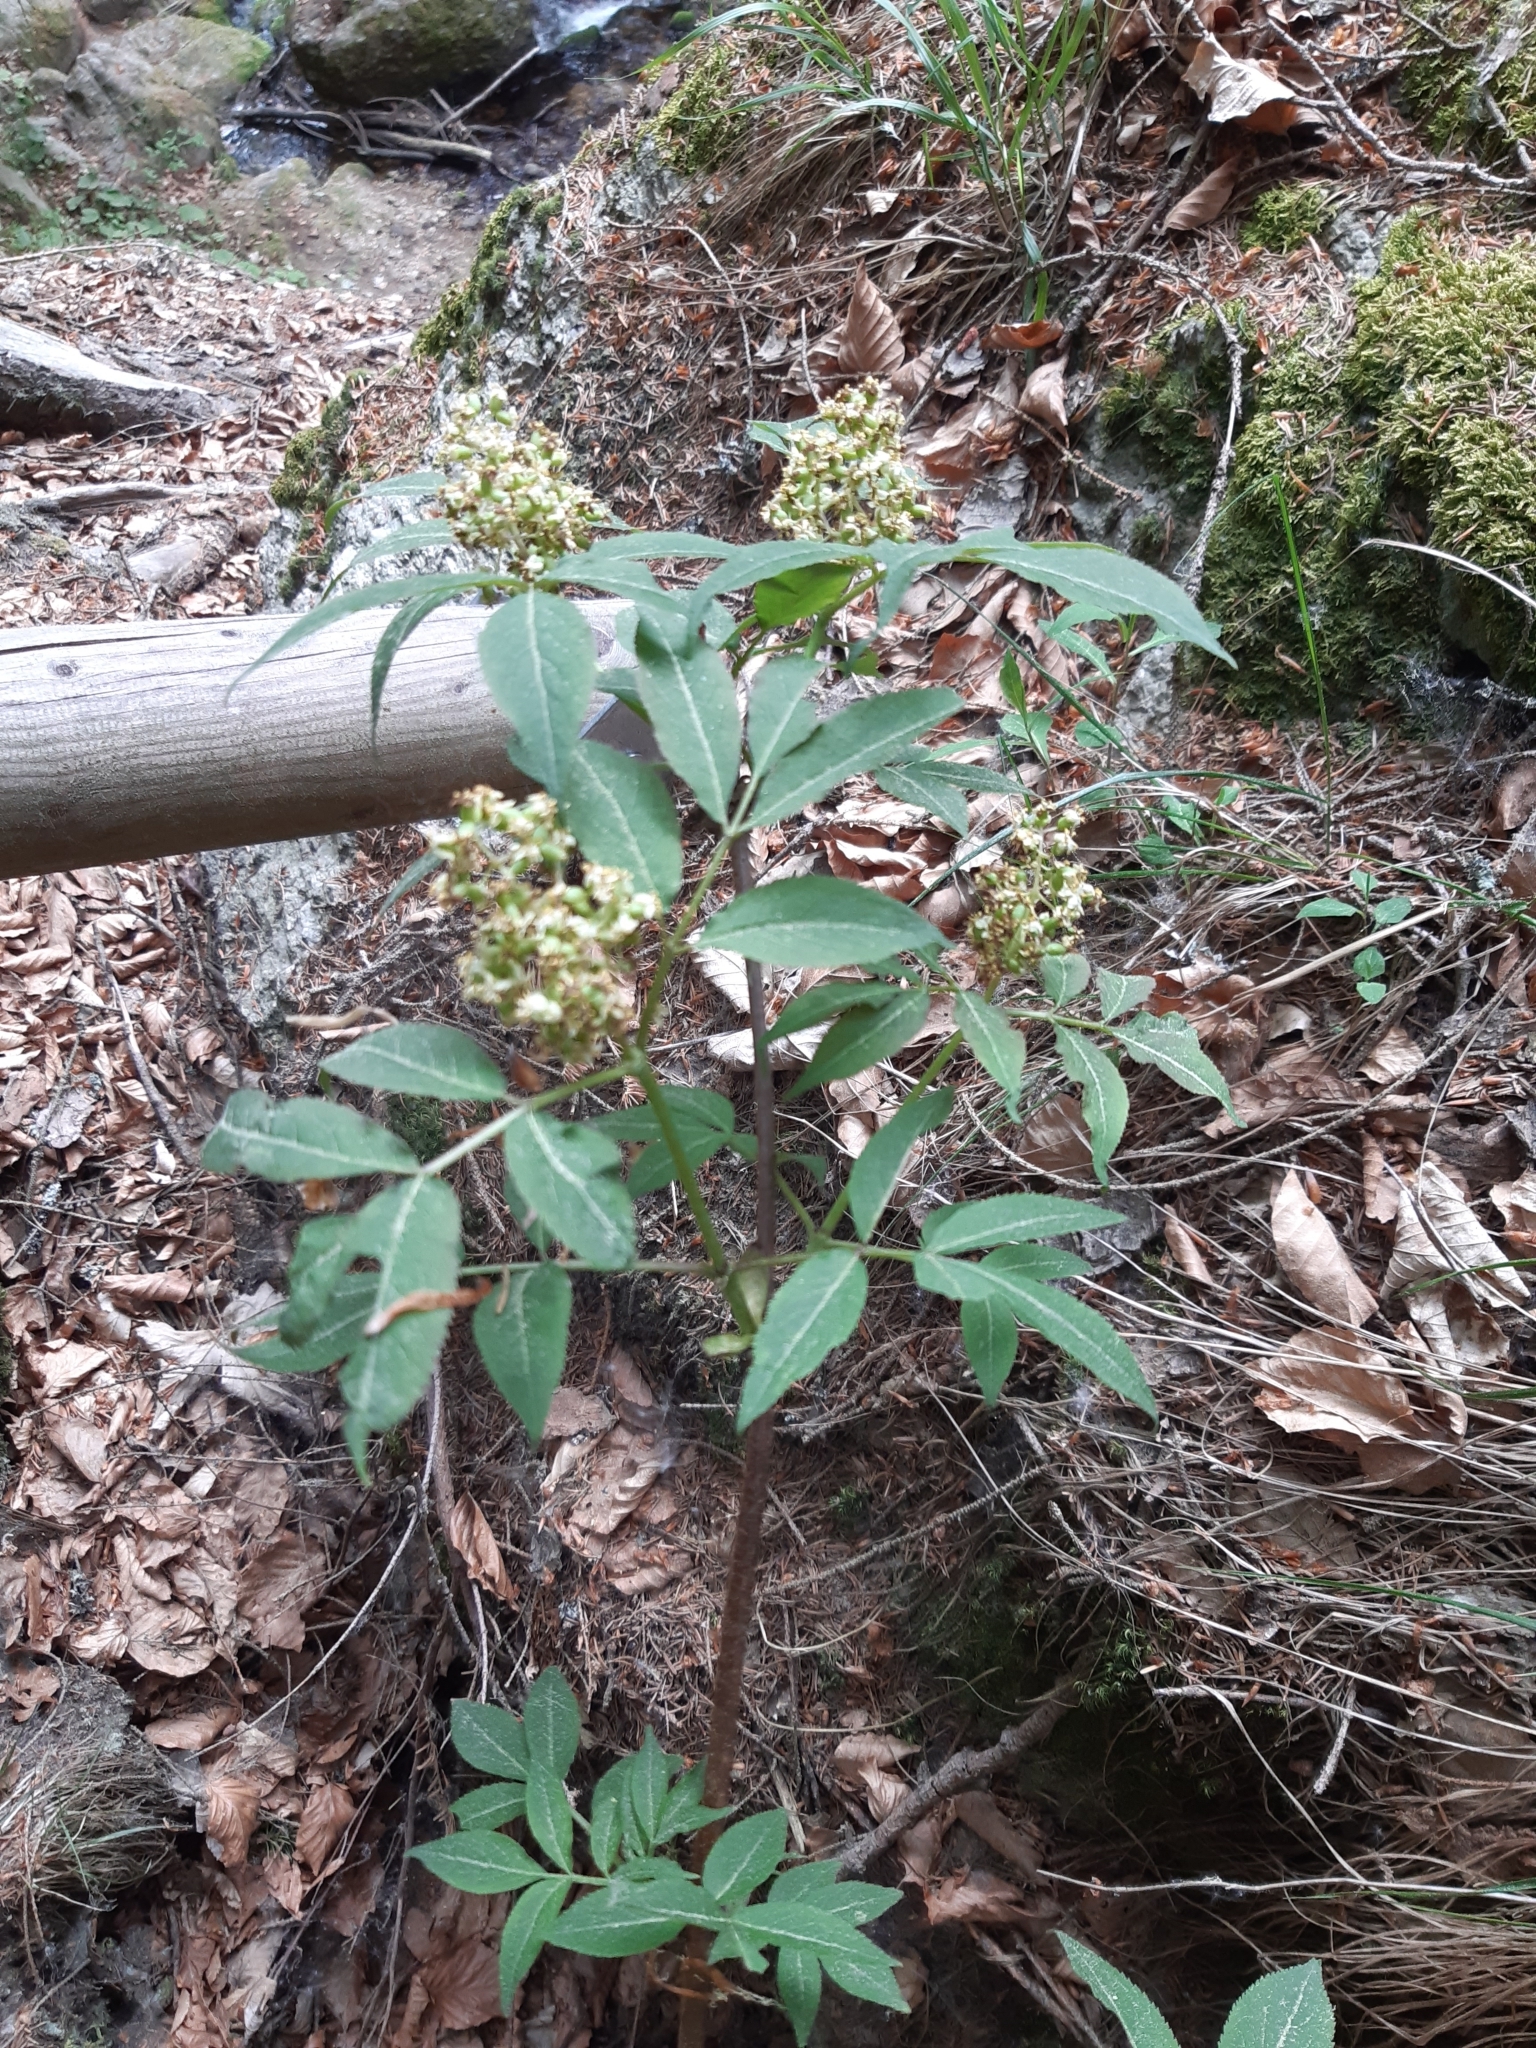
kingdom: Plantae
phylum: Tracheophyta
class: Magnoliopsida
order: Dipsacales
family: Viburnaceae
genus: Sambucus
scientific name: Sambucus racemosa
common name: Red-berried elder
